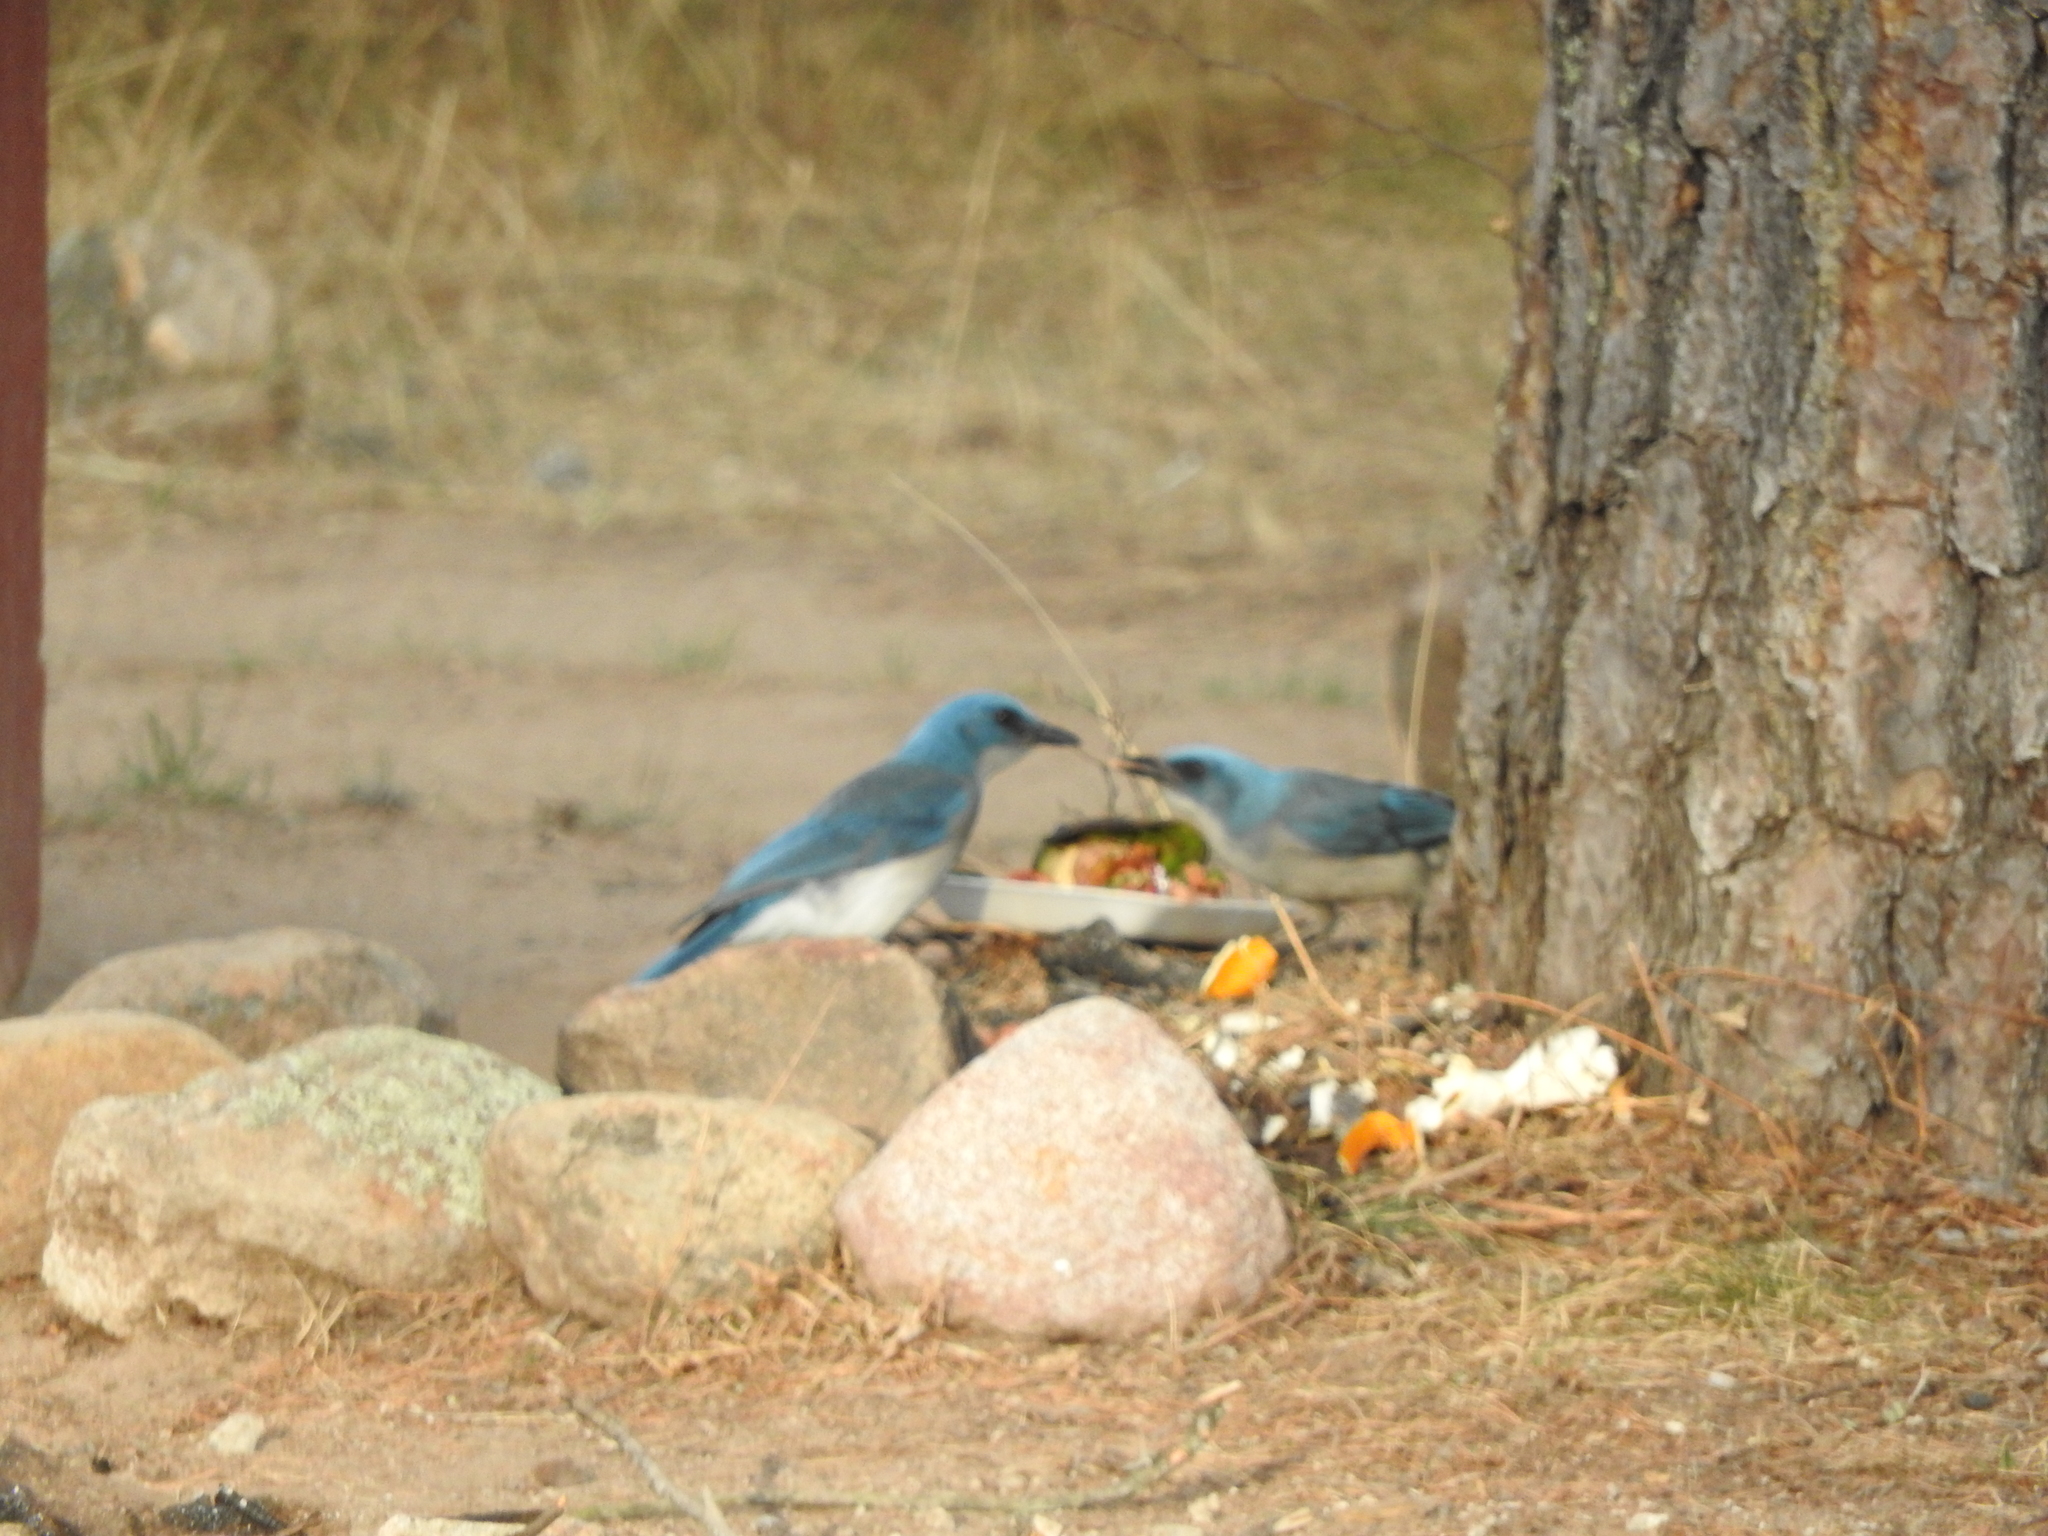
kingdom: Animalia
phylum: Chordata
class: Aves
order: Passeriformes
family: Corvidae
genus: Aphelocoma
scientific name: Aphelocoma wollweberi
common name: Mexican jay
